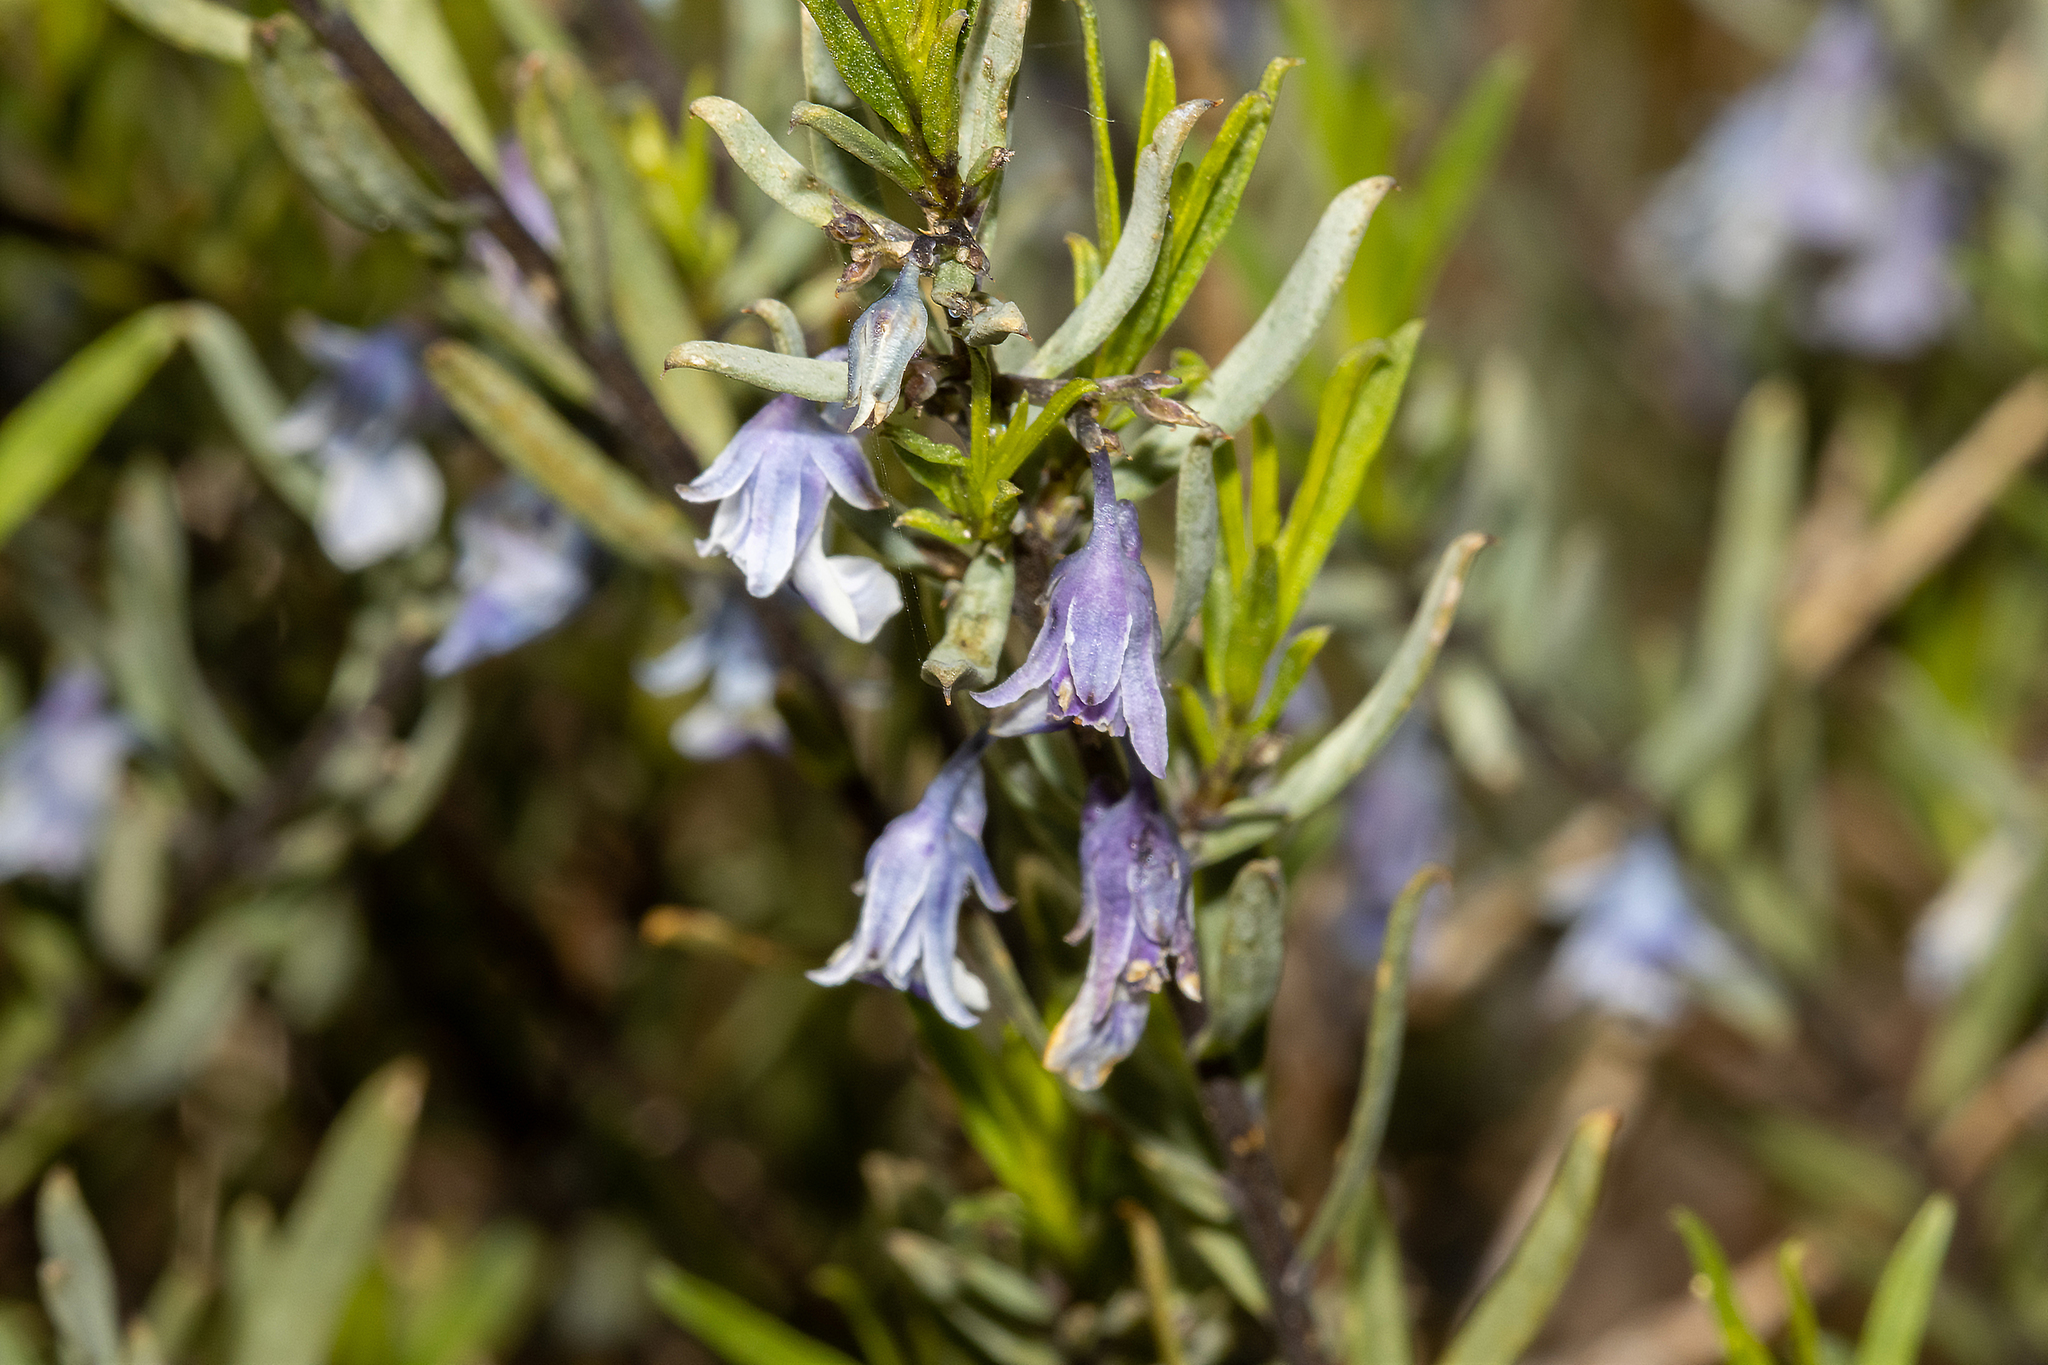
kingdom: Plantae
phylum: Tracheophyta
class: Magnoliopsida
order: Malpighiales
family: Violaceae
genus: Pigea
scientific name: Pigea floribunda
